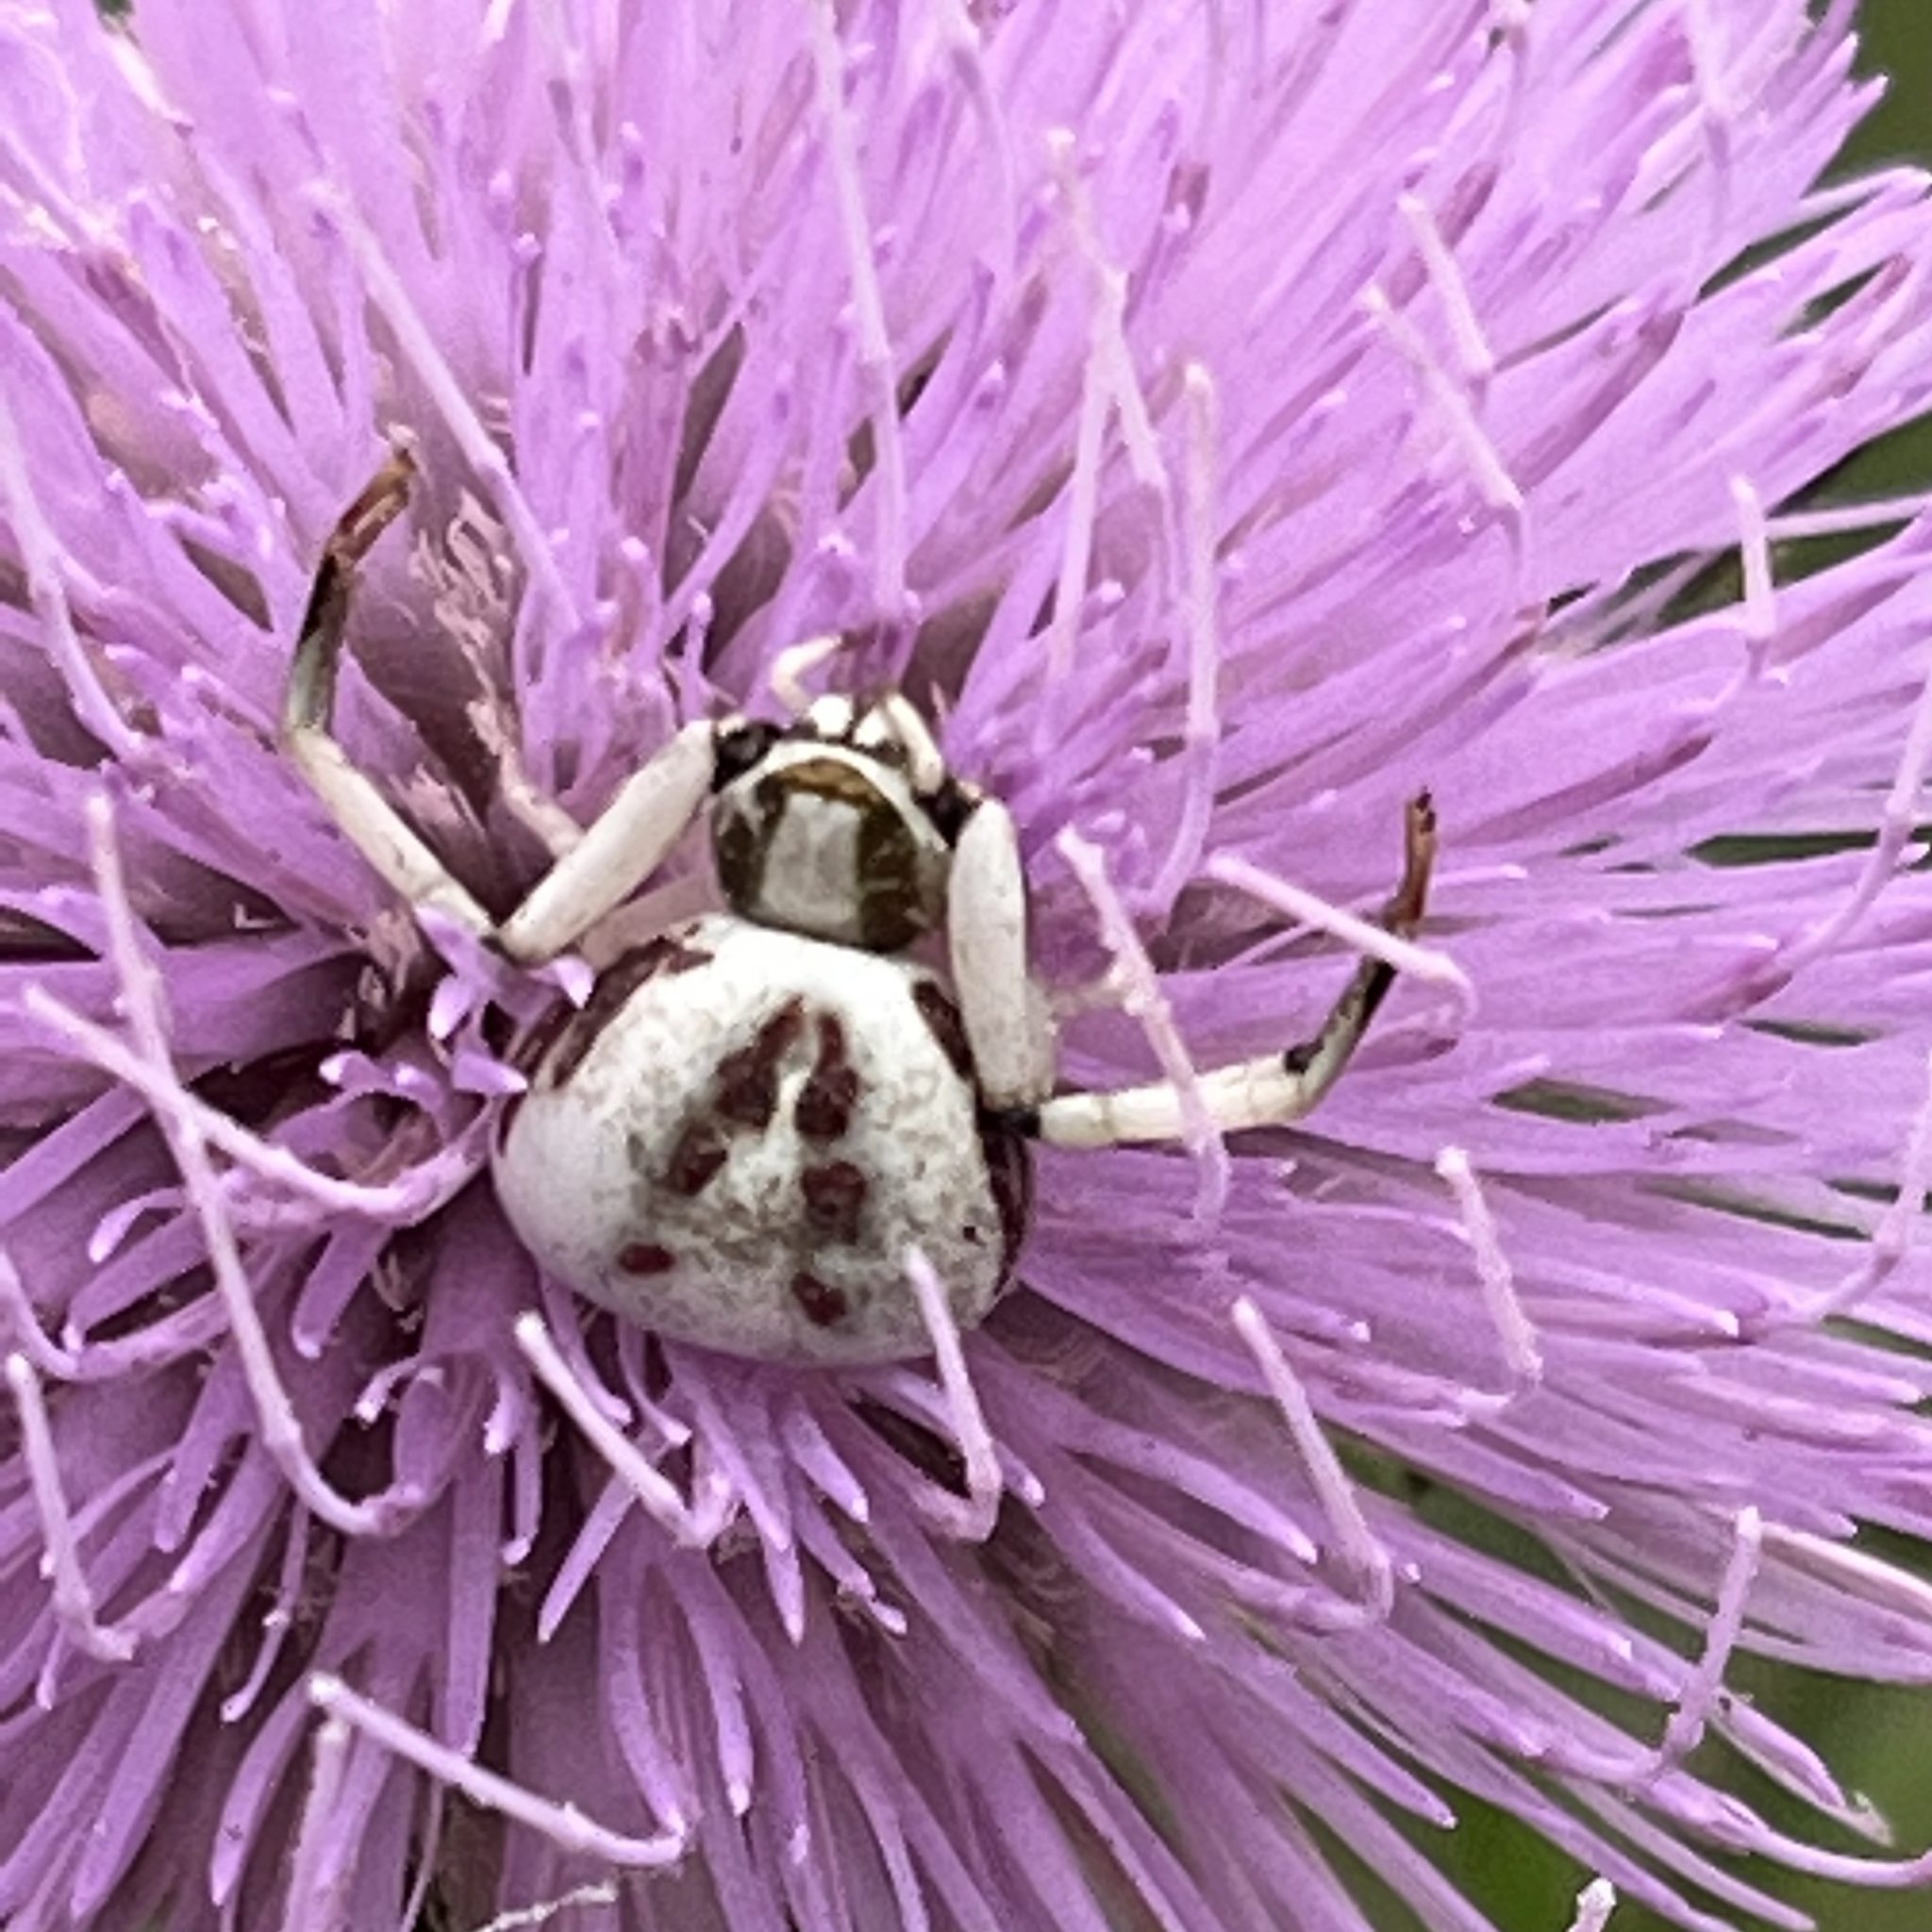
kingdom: Animalia
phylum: Arthropoda
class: Arachnida
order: Araneae
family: Thomisidae
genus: Misumenoides
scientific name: Misumenoides formosipes
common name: White-banded crab spider
